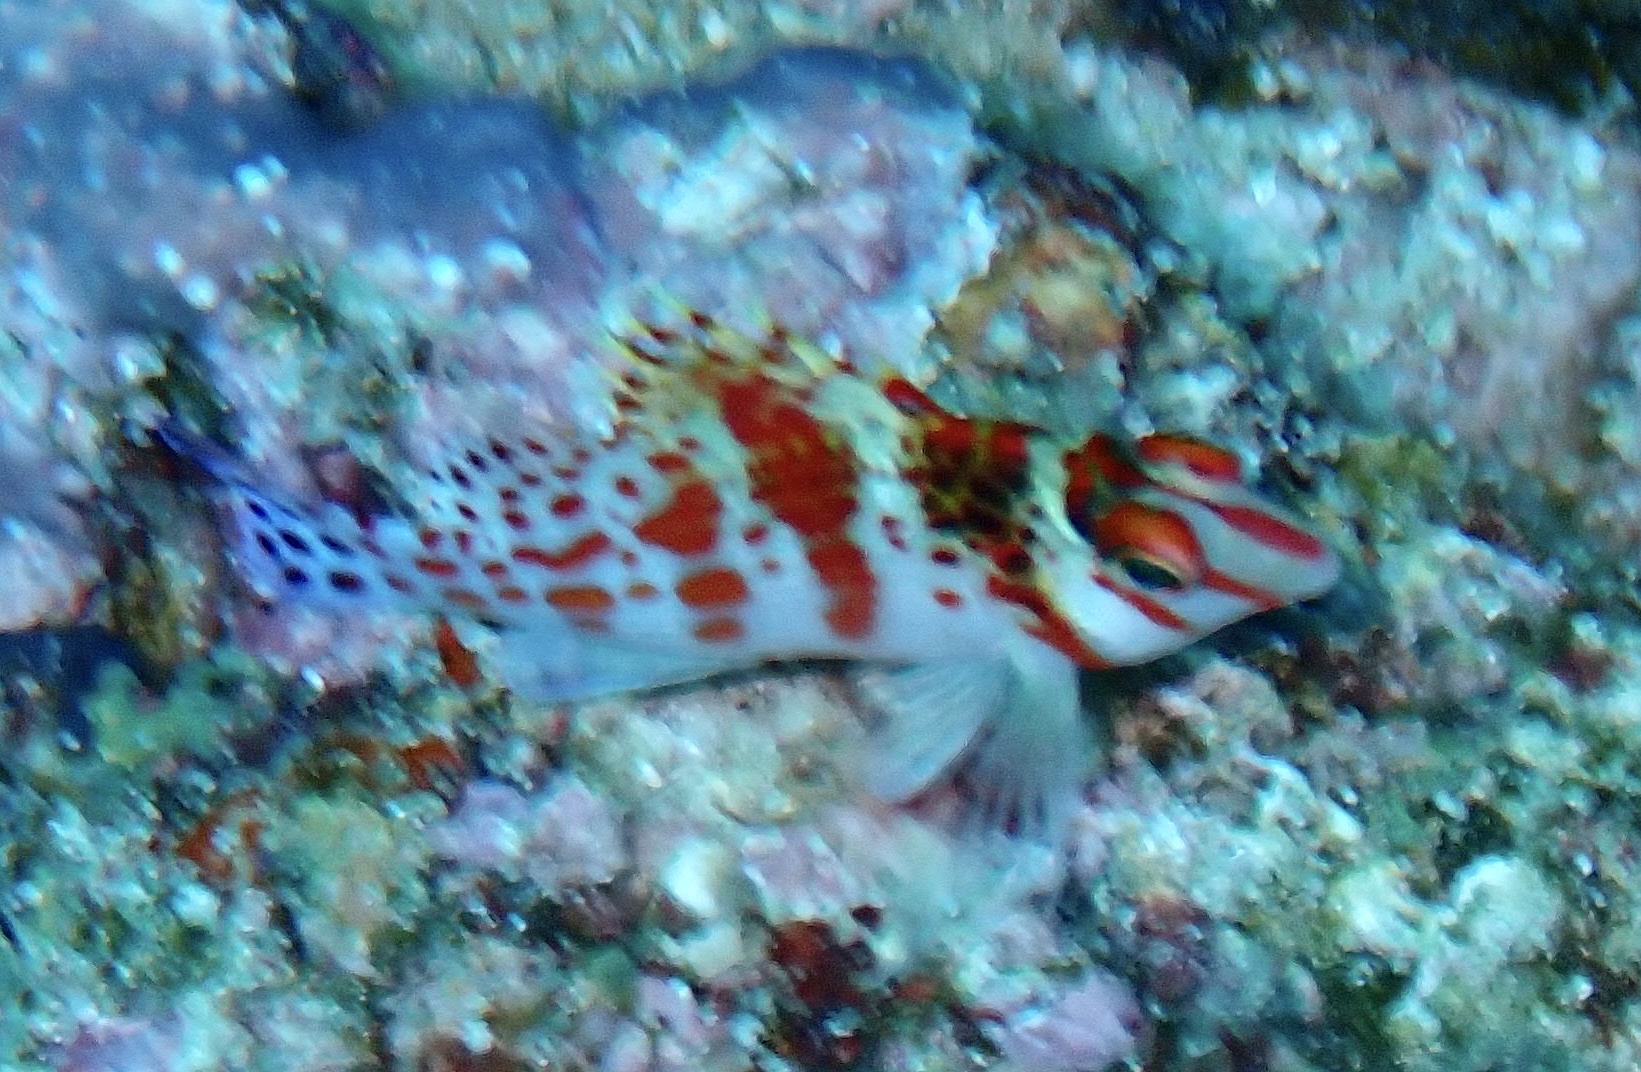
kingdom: Animalia
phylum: Chordata
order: Perciformes
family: Cirrhitidae
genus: Cirrhitichthys
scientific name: Cirrhitichthys falco
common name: Coral hawkfish
